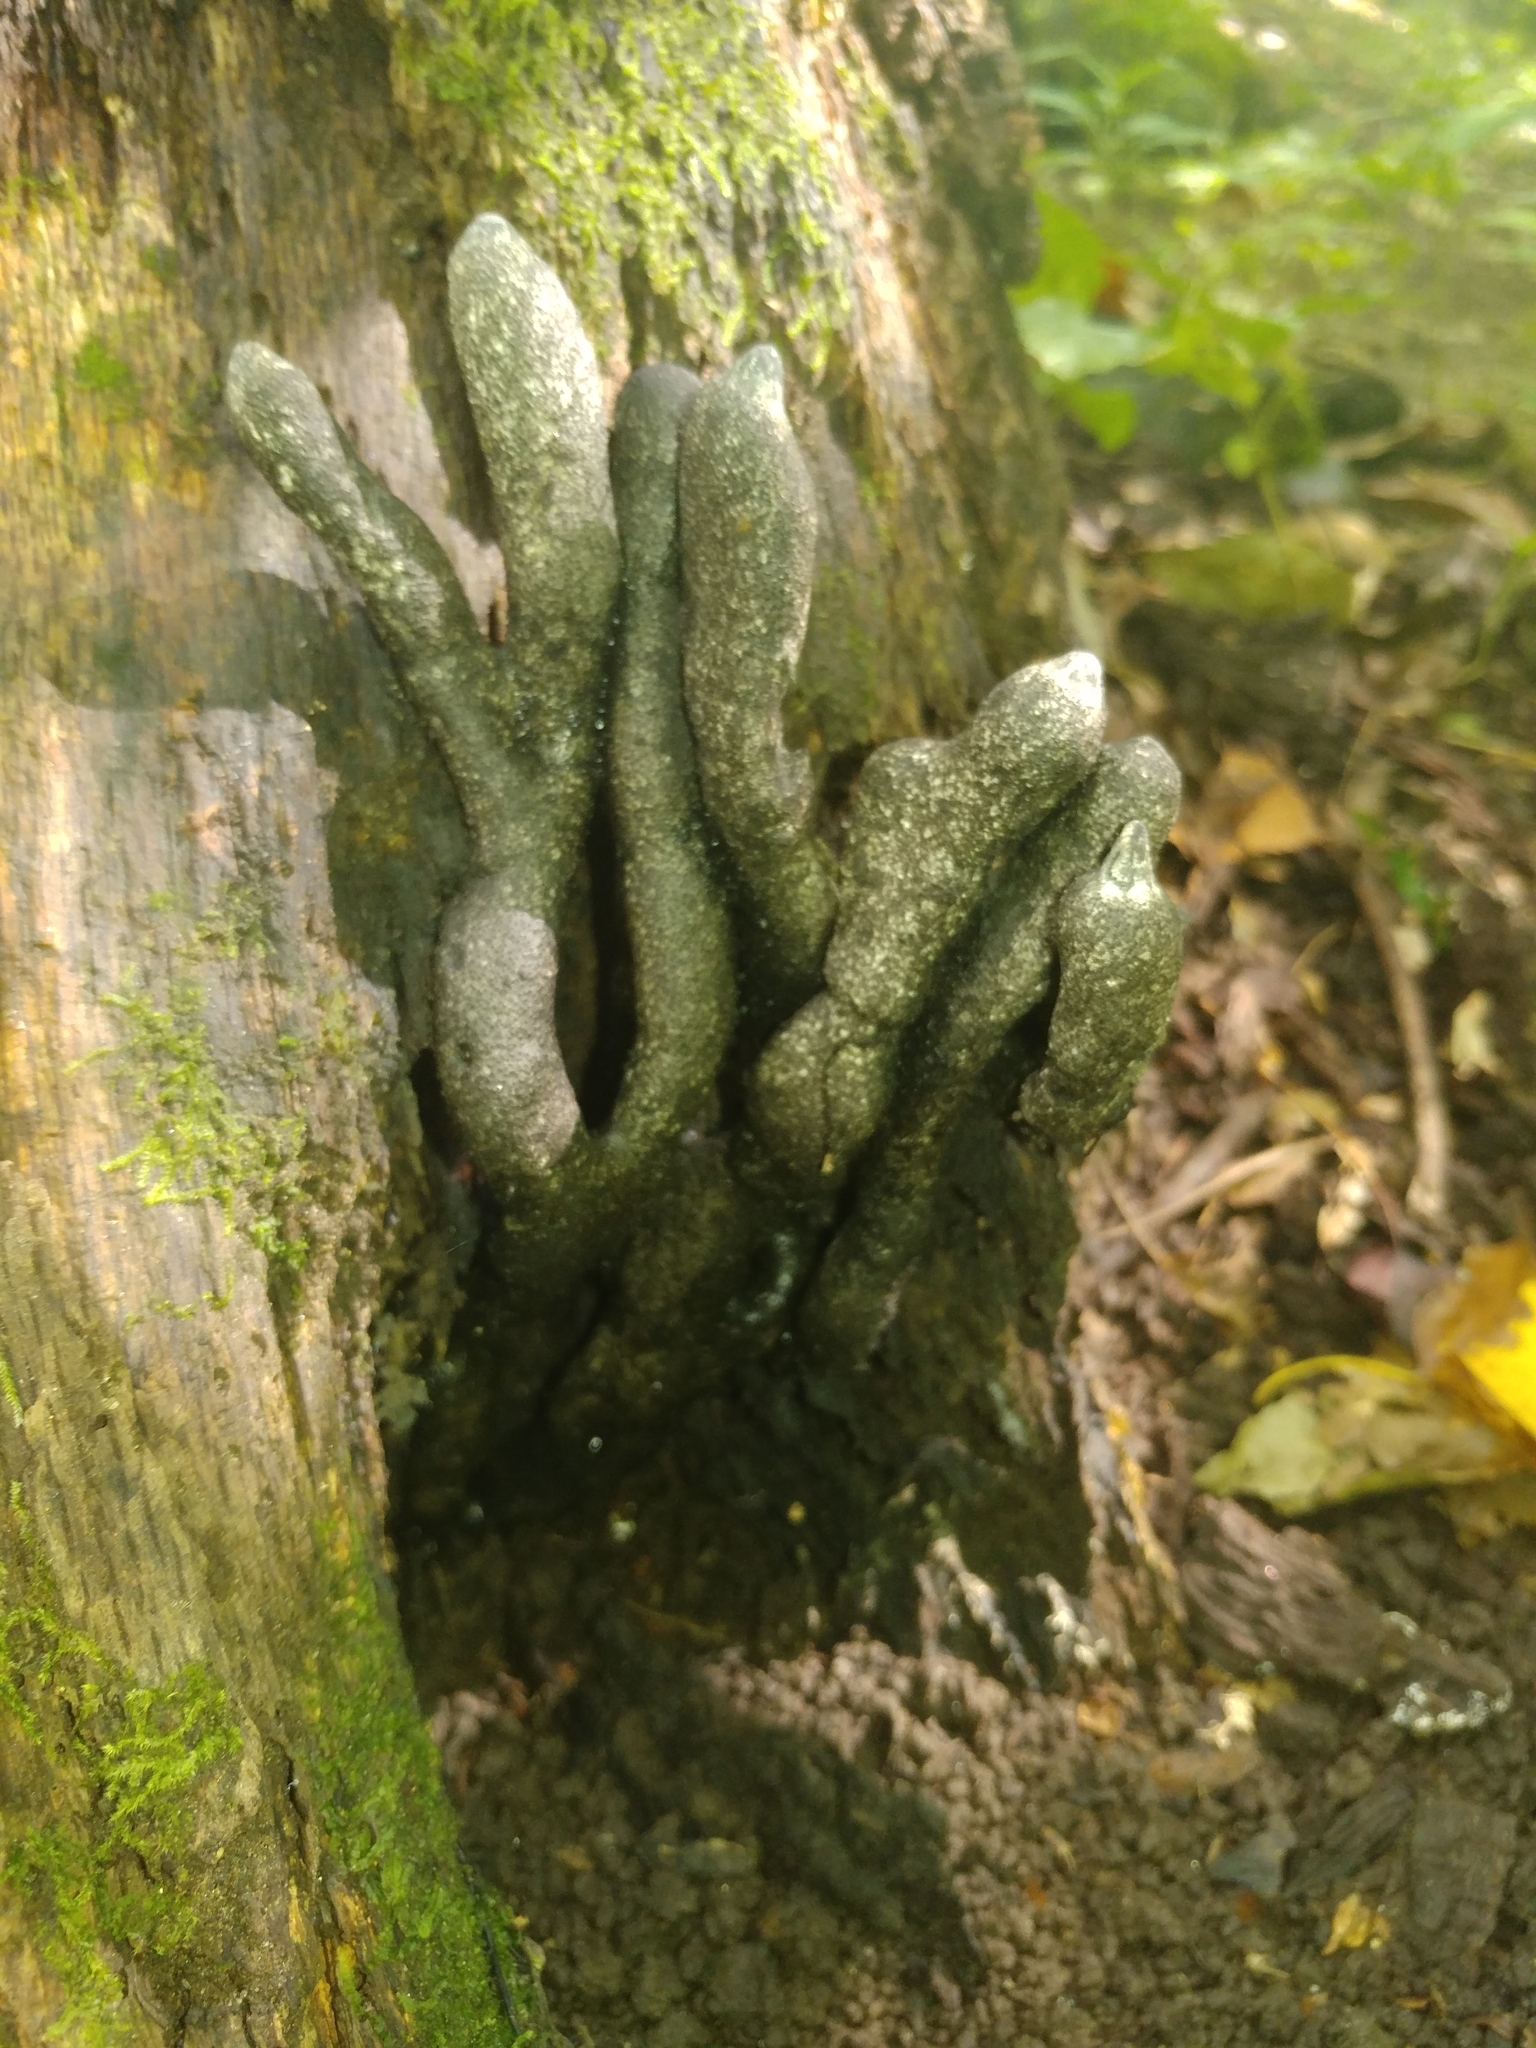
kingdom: Fungi
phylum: Ascomycota
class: Sordariomycetes
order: Xylariales
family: Xylariaceae
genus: Xylaria
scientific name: Xylaria polymorpha
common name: Dead man's fingers
